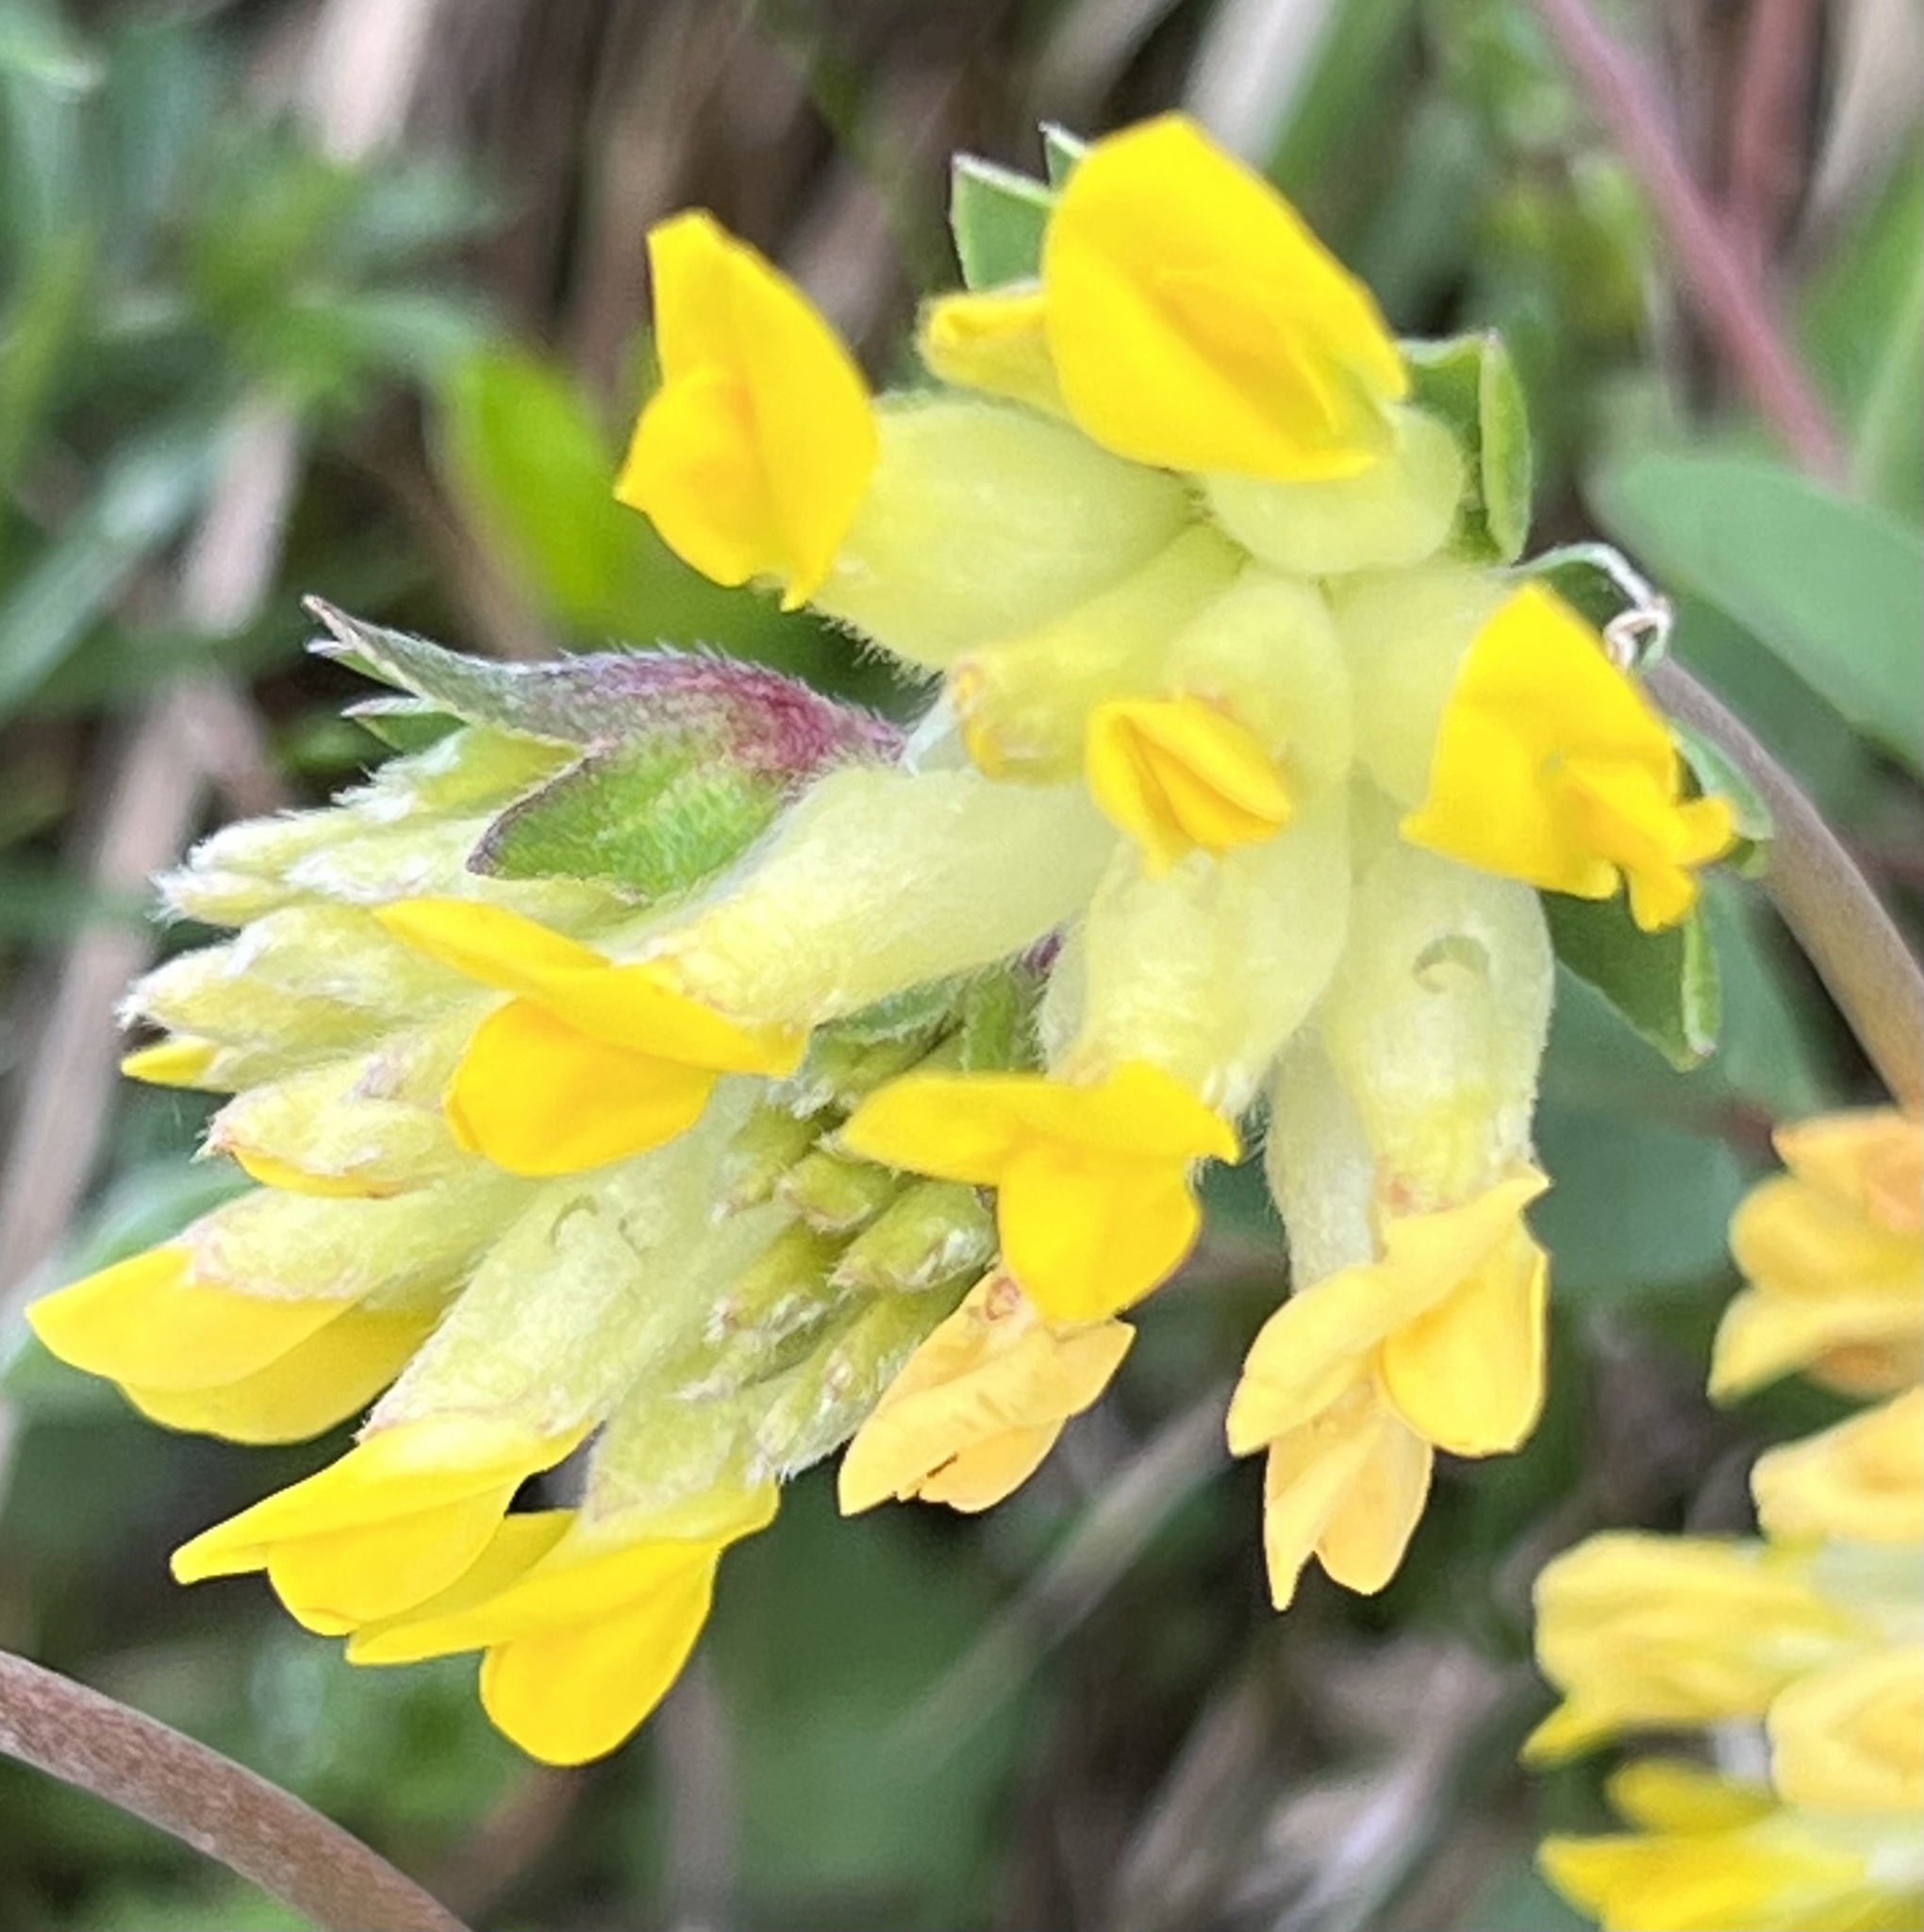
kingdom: Plantae
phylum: Tracheophyta
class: Magnoliopsida
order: Fabales
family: Fabaceae
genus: Anthyllis
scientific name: Anthyllis vulneraria
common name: Kidney vetch
